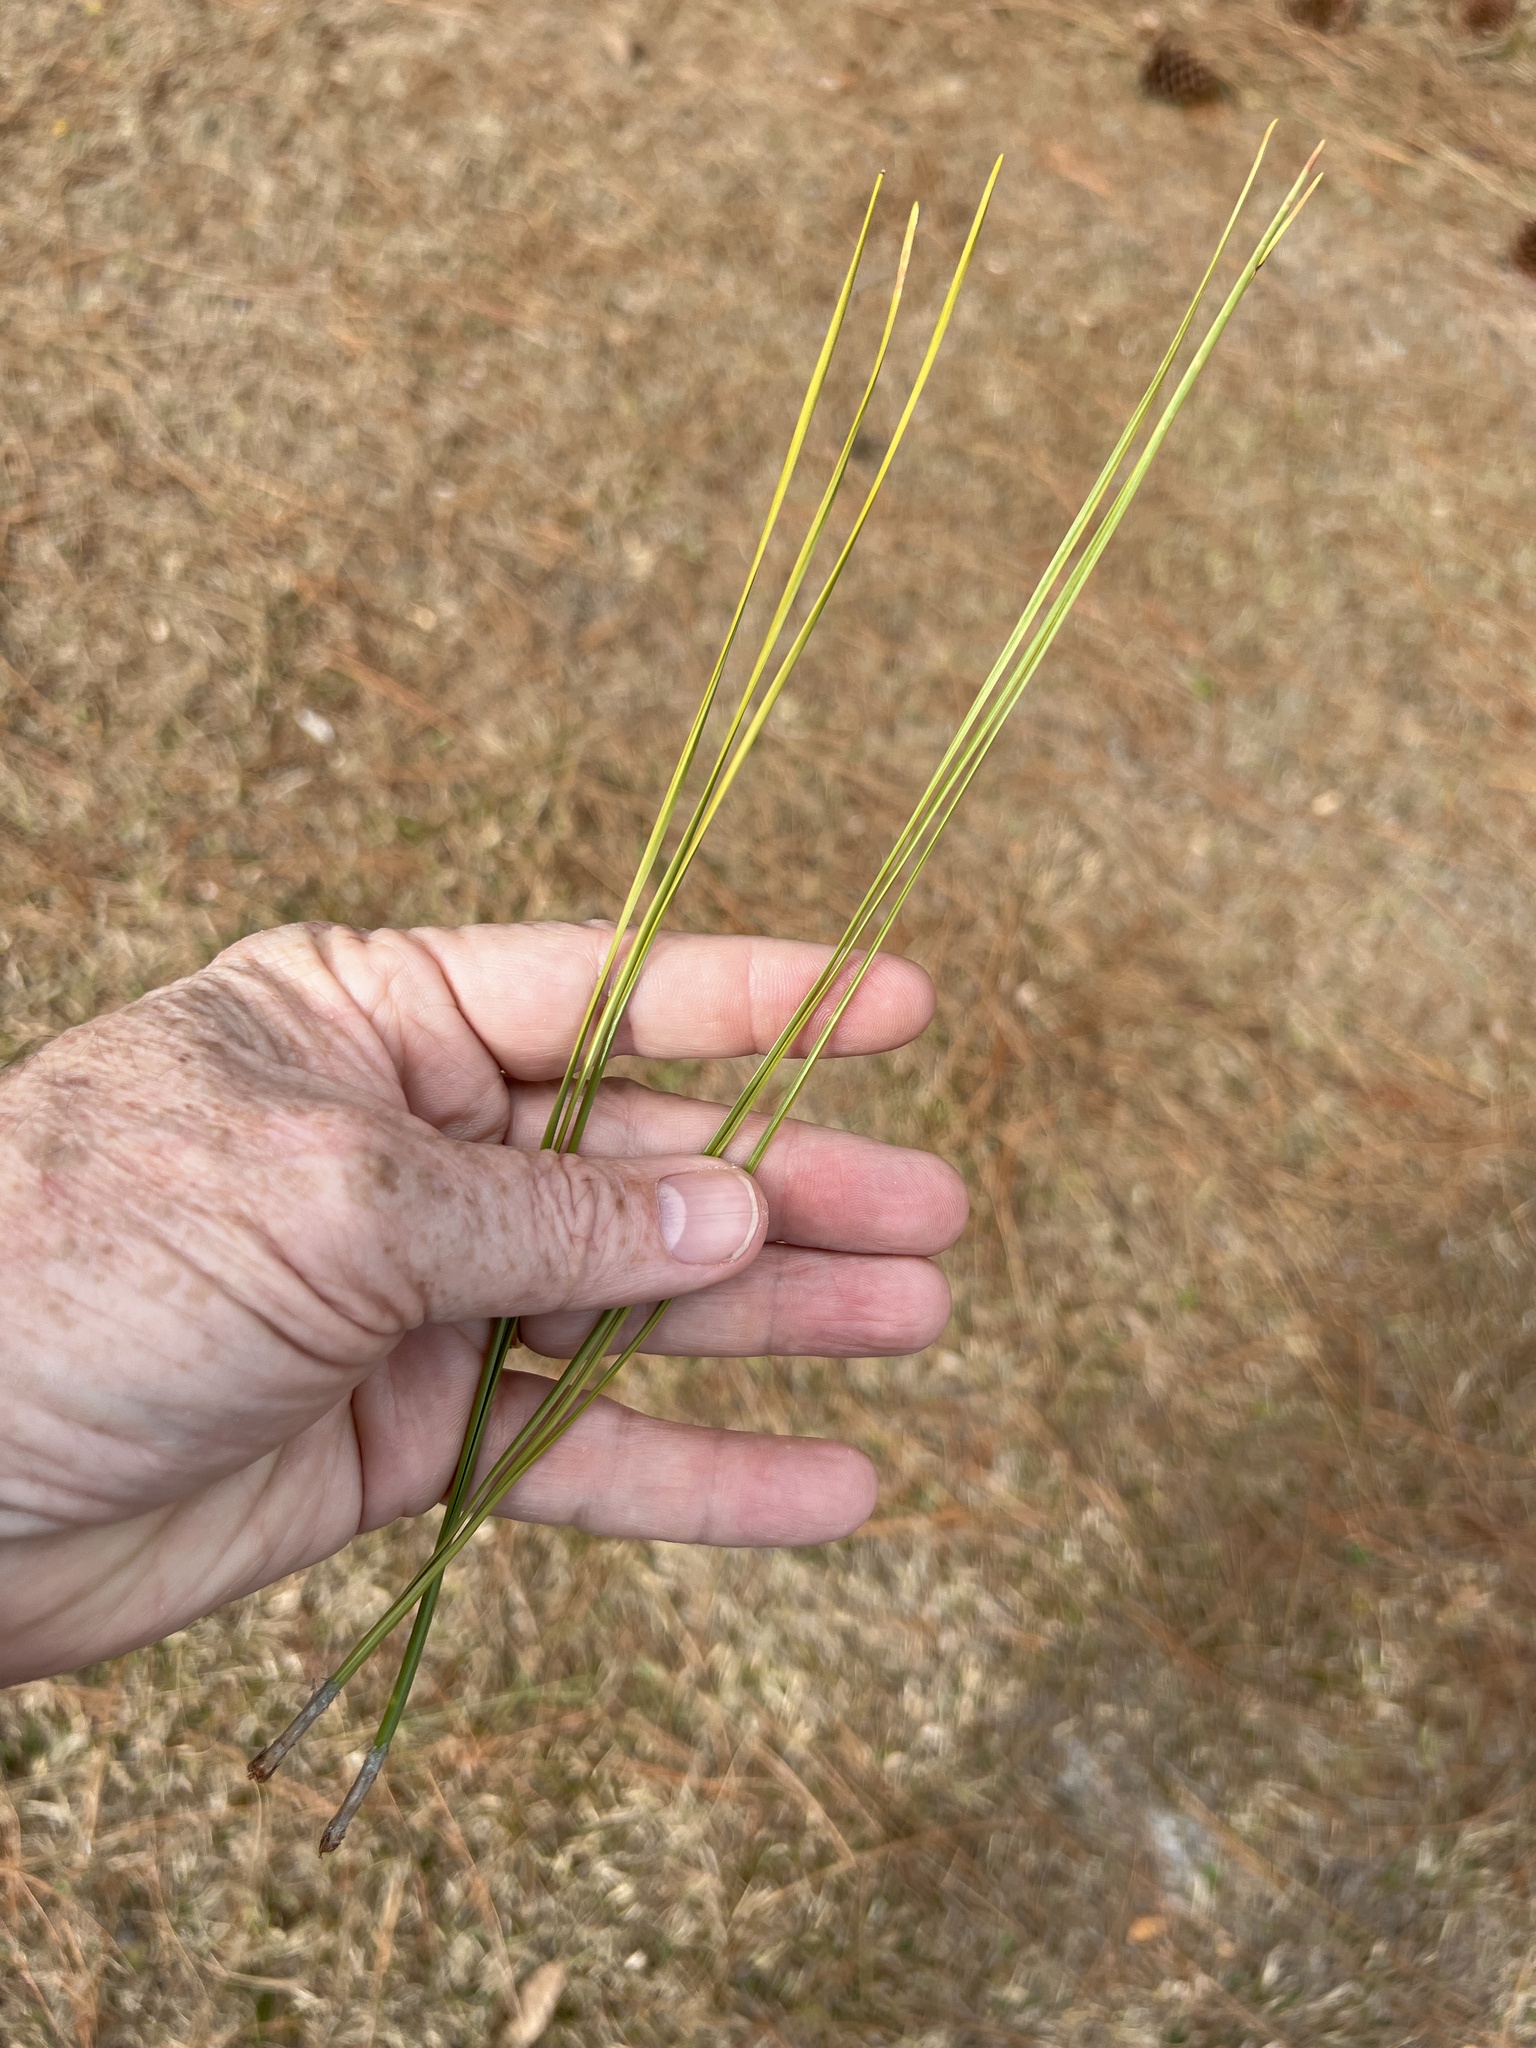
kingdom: Plantae
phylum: Tracheophyta
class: Pinopsida
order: Pinales
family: Pinaceae
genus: Pinus
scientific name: Pinus elliottii
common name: Slash pine
